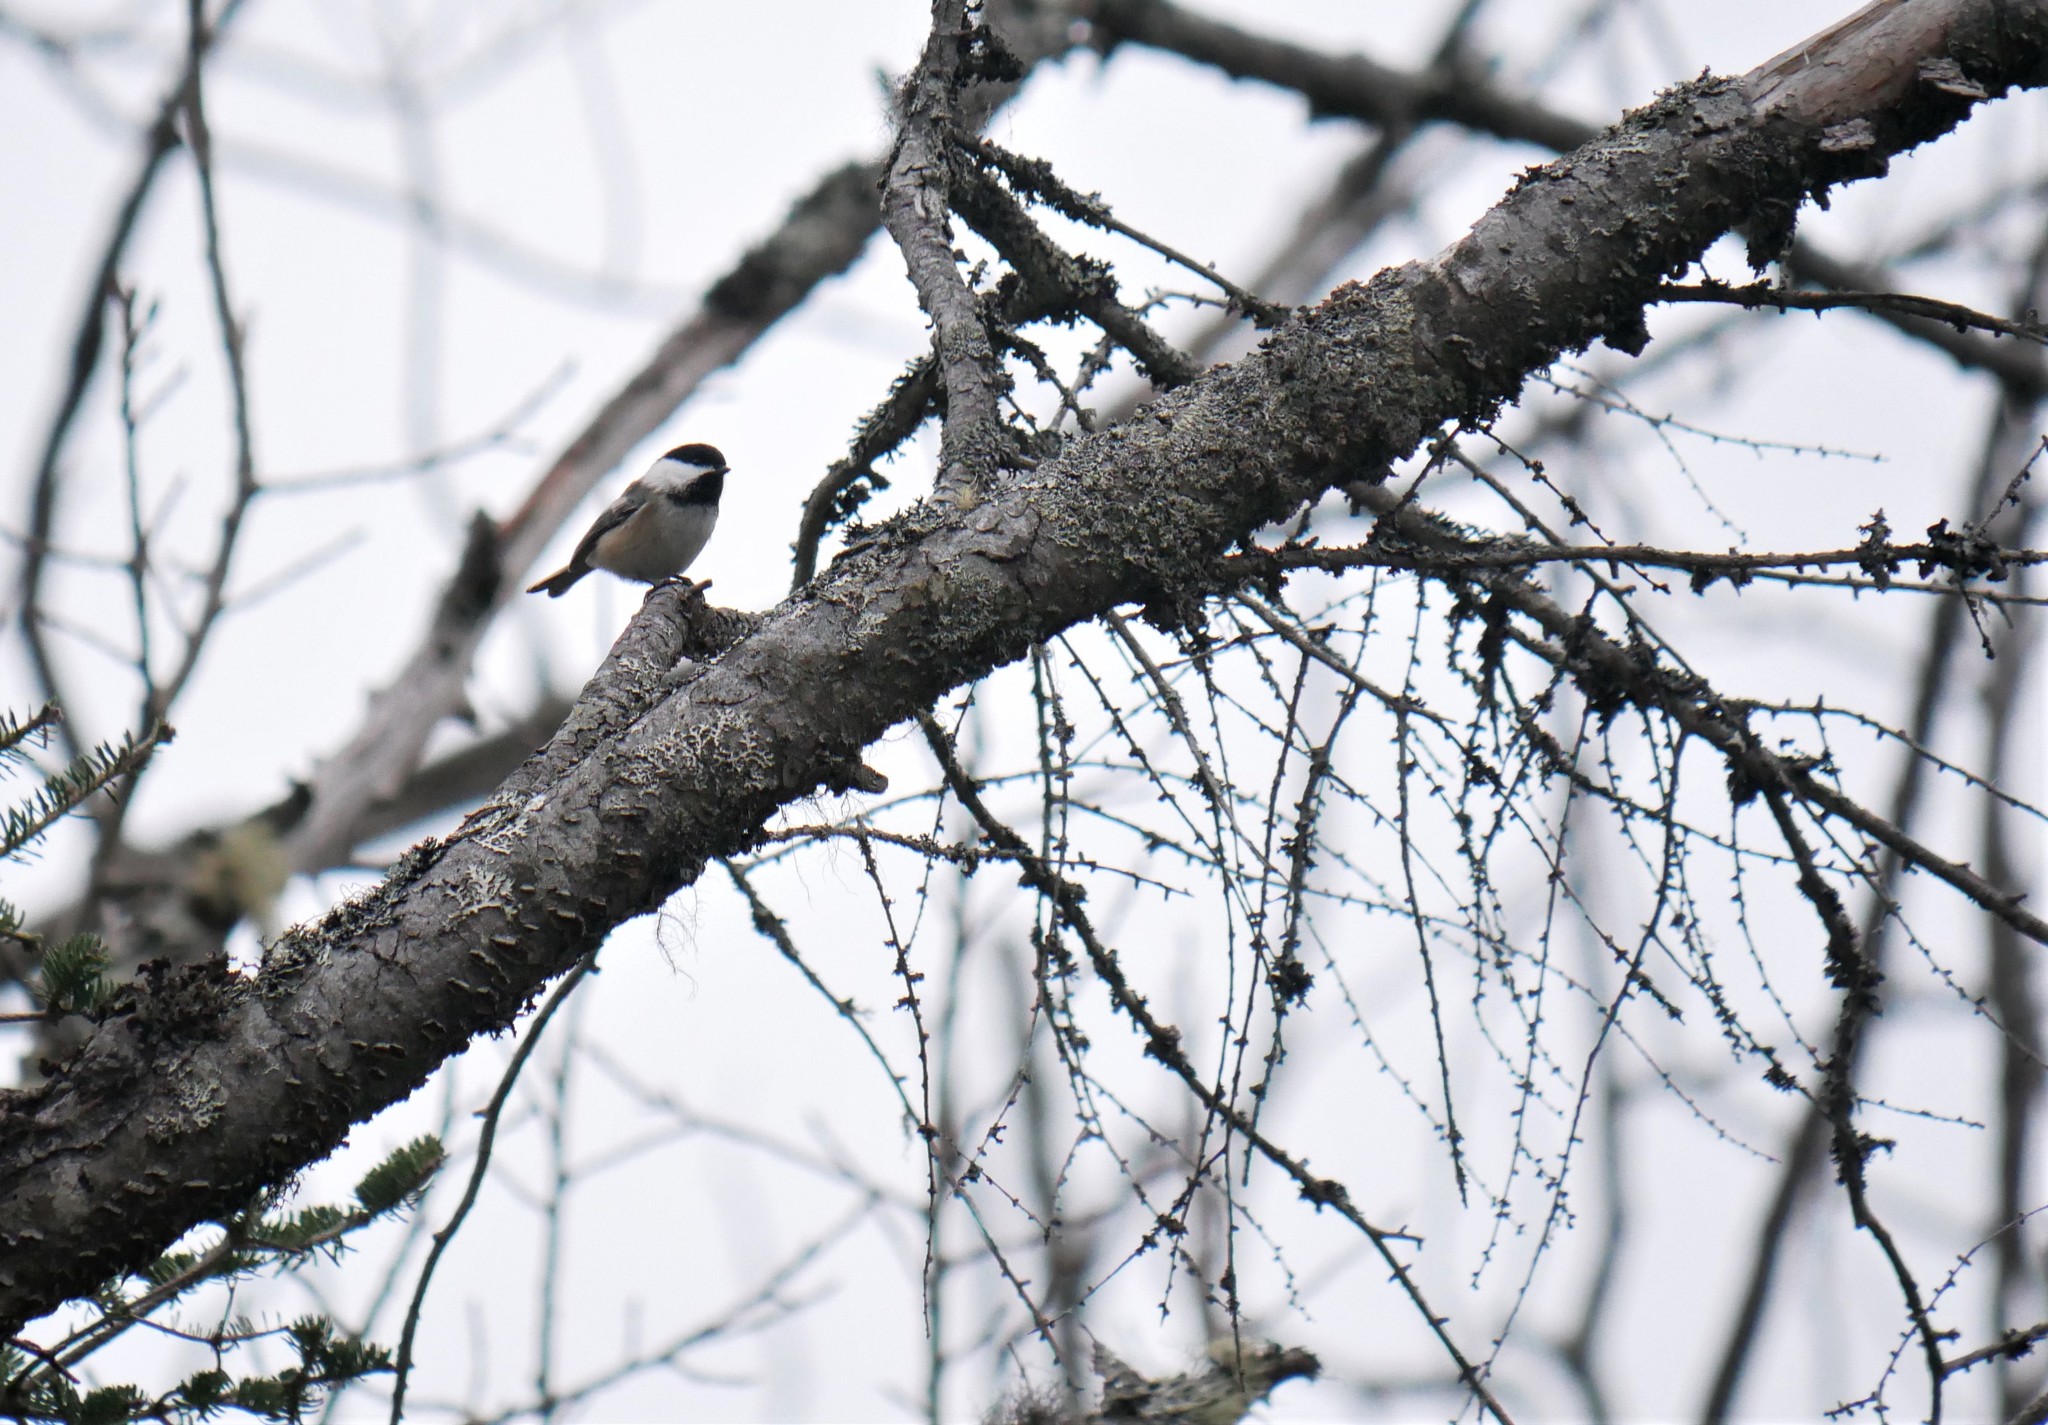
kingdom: Animalia
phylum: Chordata
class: Aves
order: Passeriformes
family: Paridae
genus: Poecile
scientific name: Poecile atricapillus
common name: Black-capped chickadee
